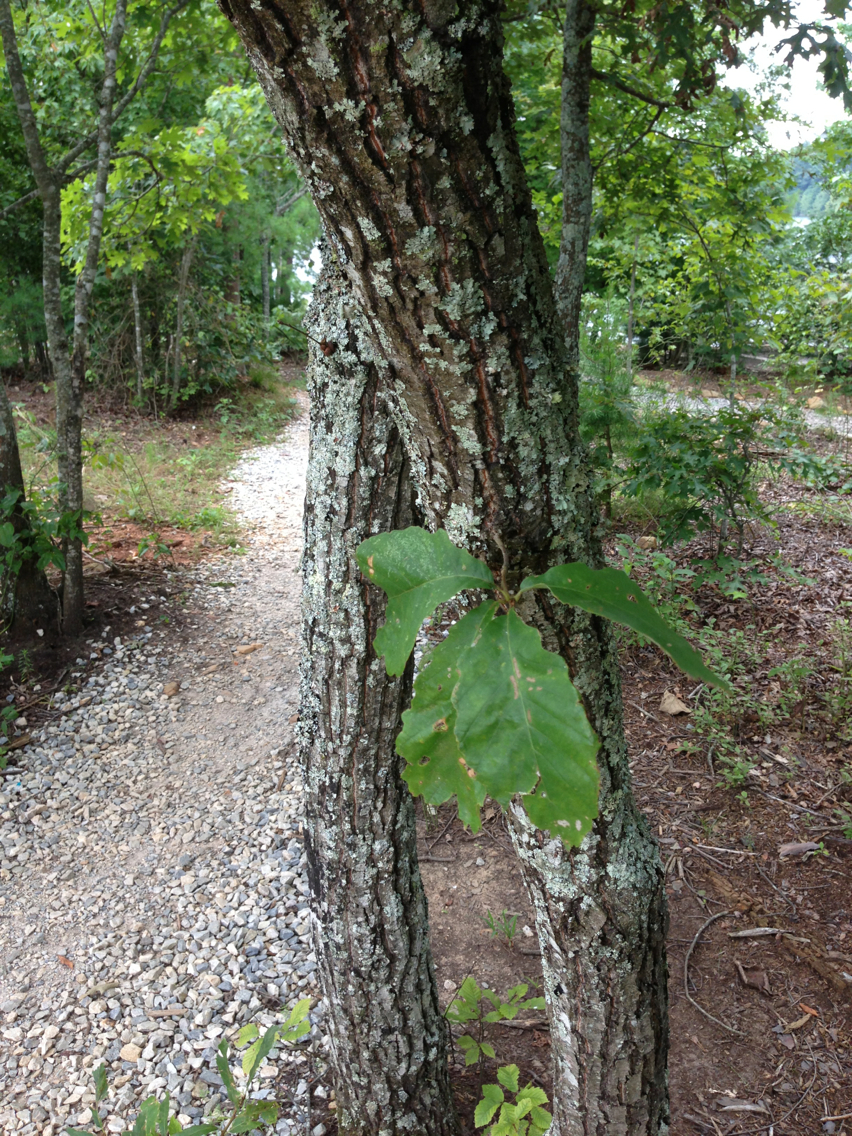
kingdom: Plantae
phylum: Tracheophyta
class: Magnoliopsida
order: Fagales
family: Fagaceae
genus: Quercus
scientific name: Quercus montana
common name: Chestnut oak
